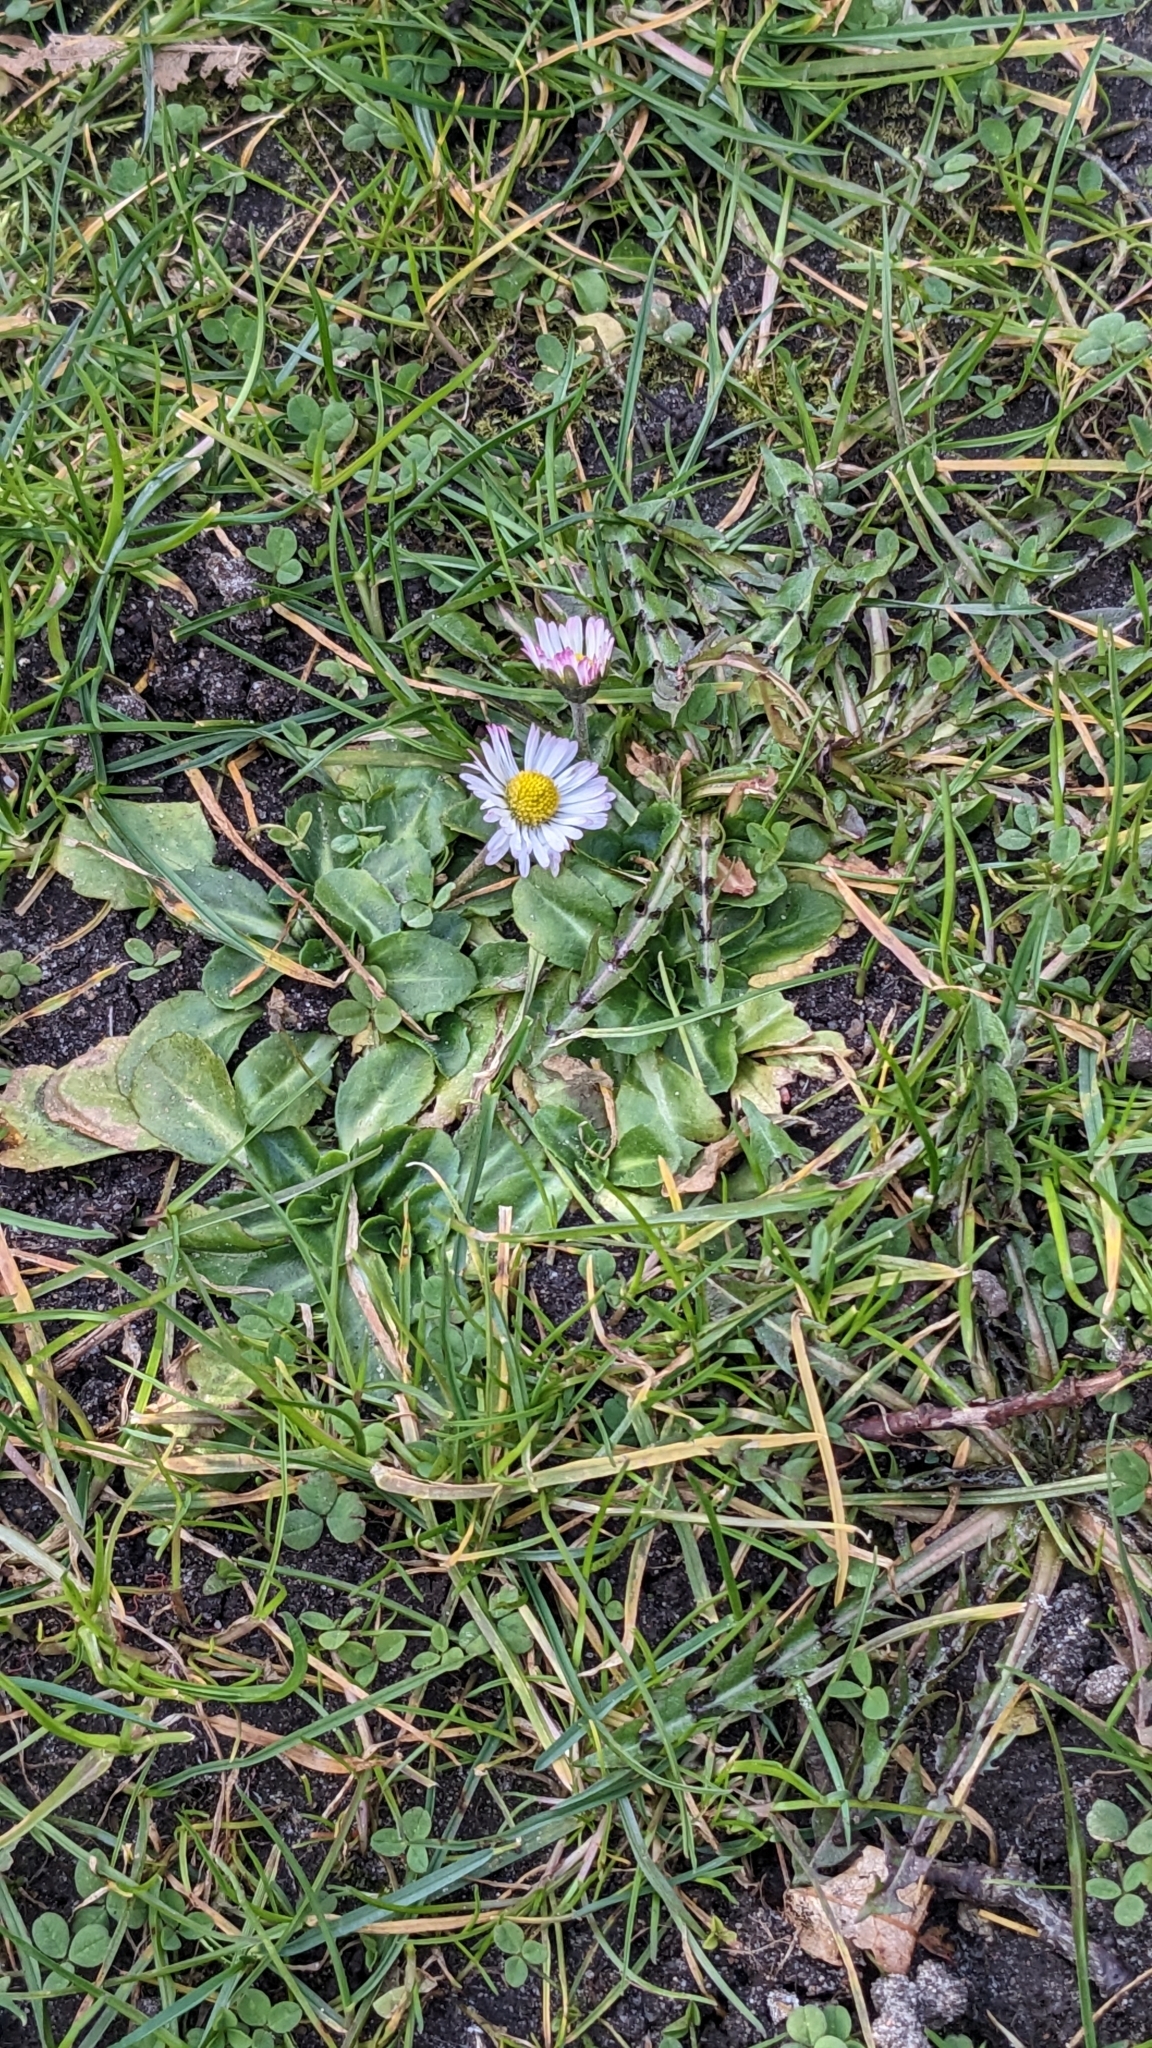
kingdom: Plantae
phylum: Tracheophyta
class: Magnoliopsida
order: Asterales
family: Asteraceae
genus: Bellis
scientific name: Bellis perennis
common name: Lawndaisy
